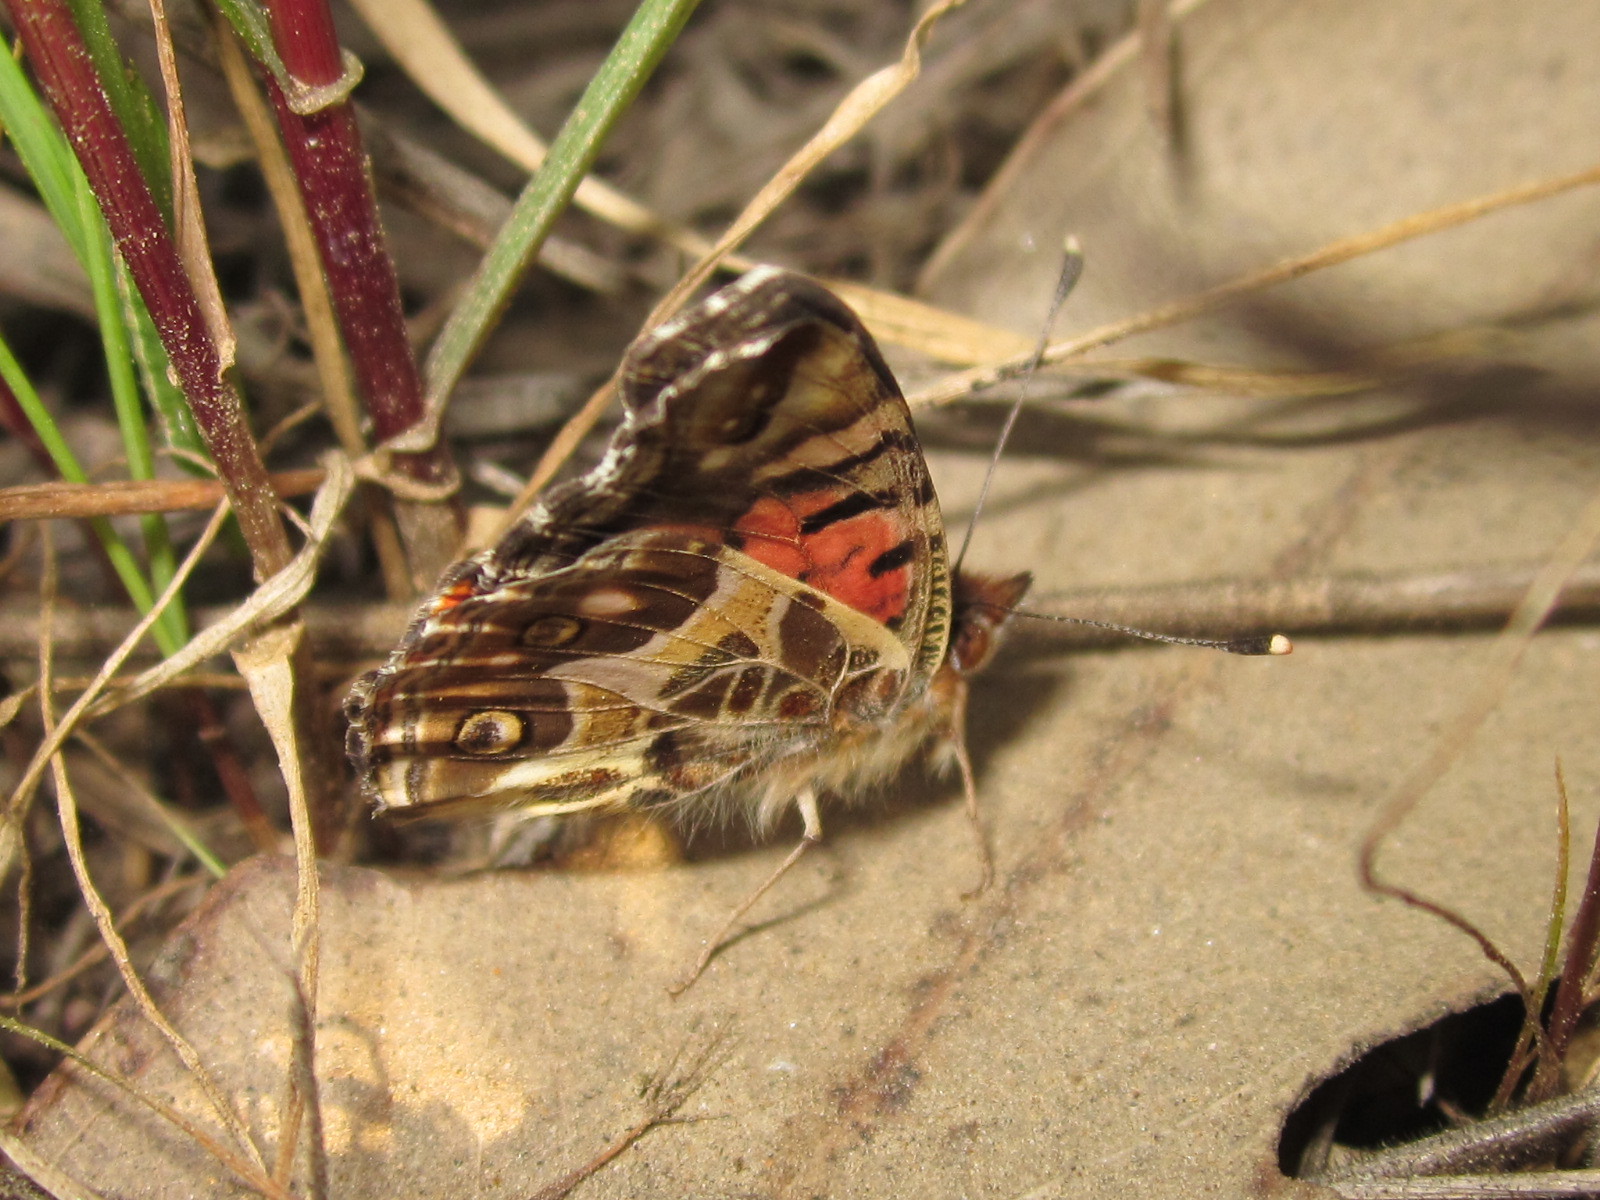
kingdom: Animalia
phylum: Arthropoda
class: Insecta
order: Lepidoptera
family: Nymphalidae
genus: Vanessa
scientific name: Vanessa terpsichore
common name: Chilean lady
